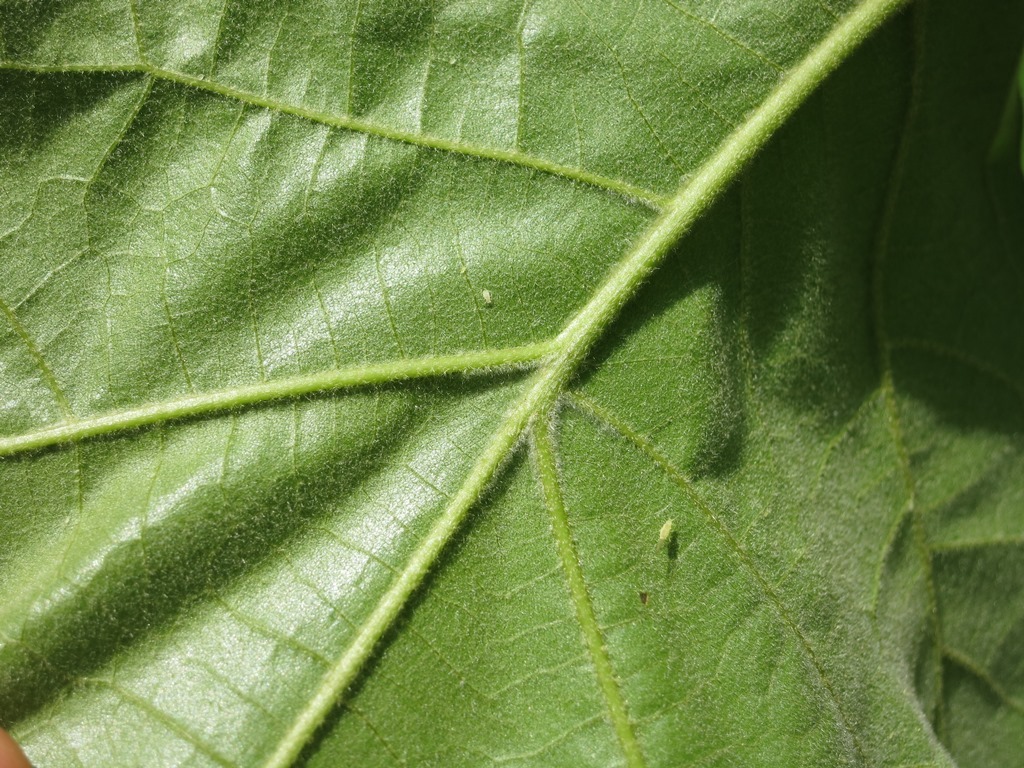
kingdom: Plantae
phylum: Tracheophyta
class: Magnoliopsida
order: Fagales
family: Fagaceae
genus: Quercus
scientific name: Quercus velutina
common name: Black oak
